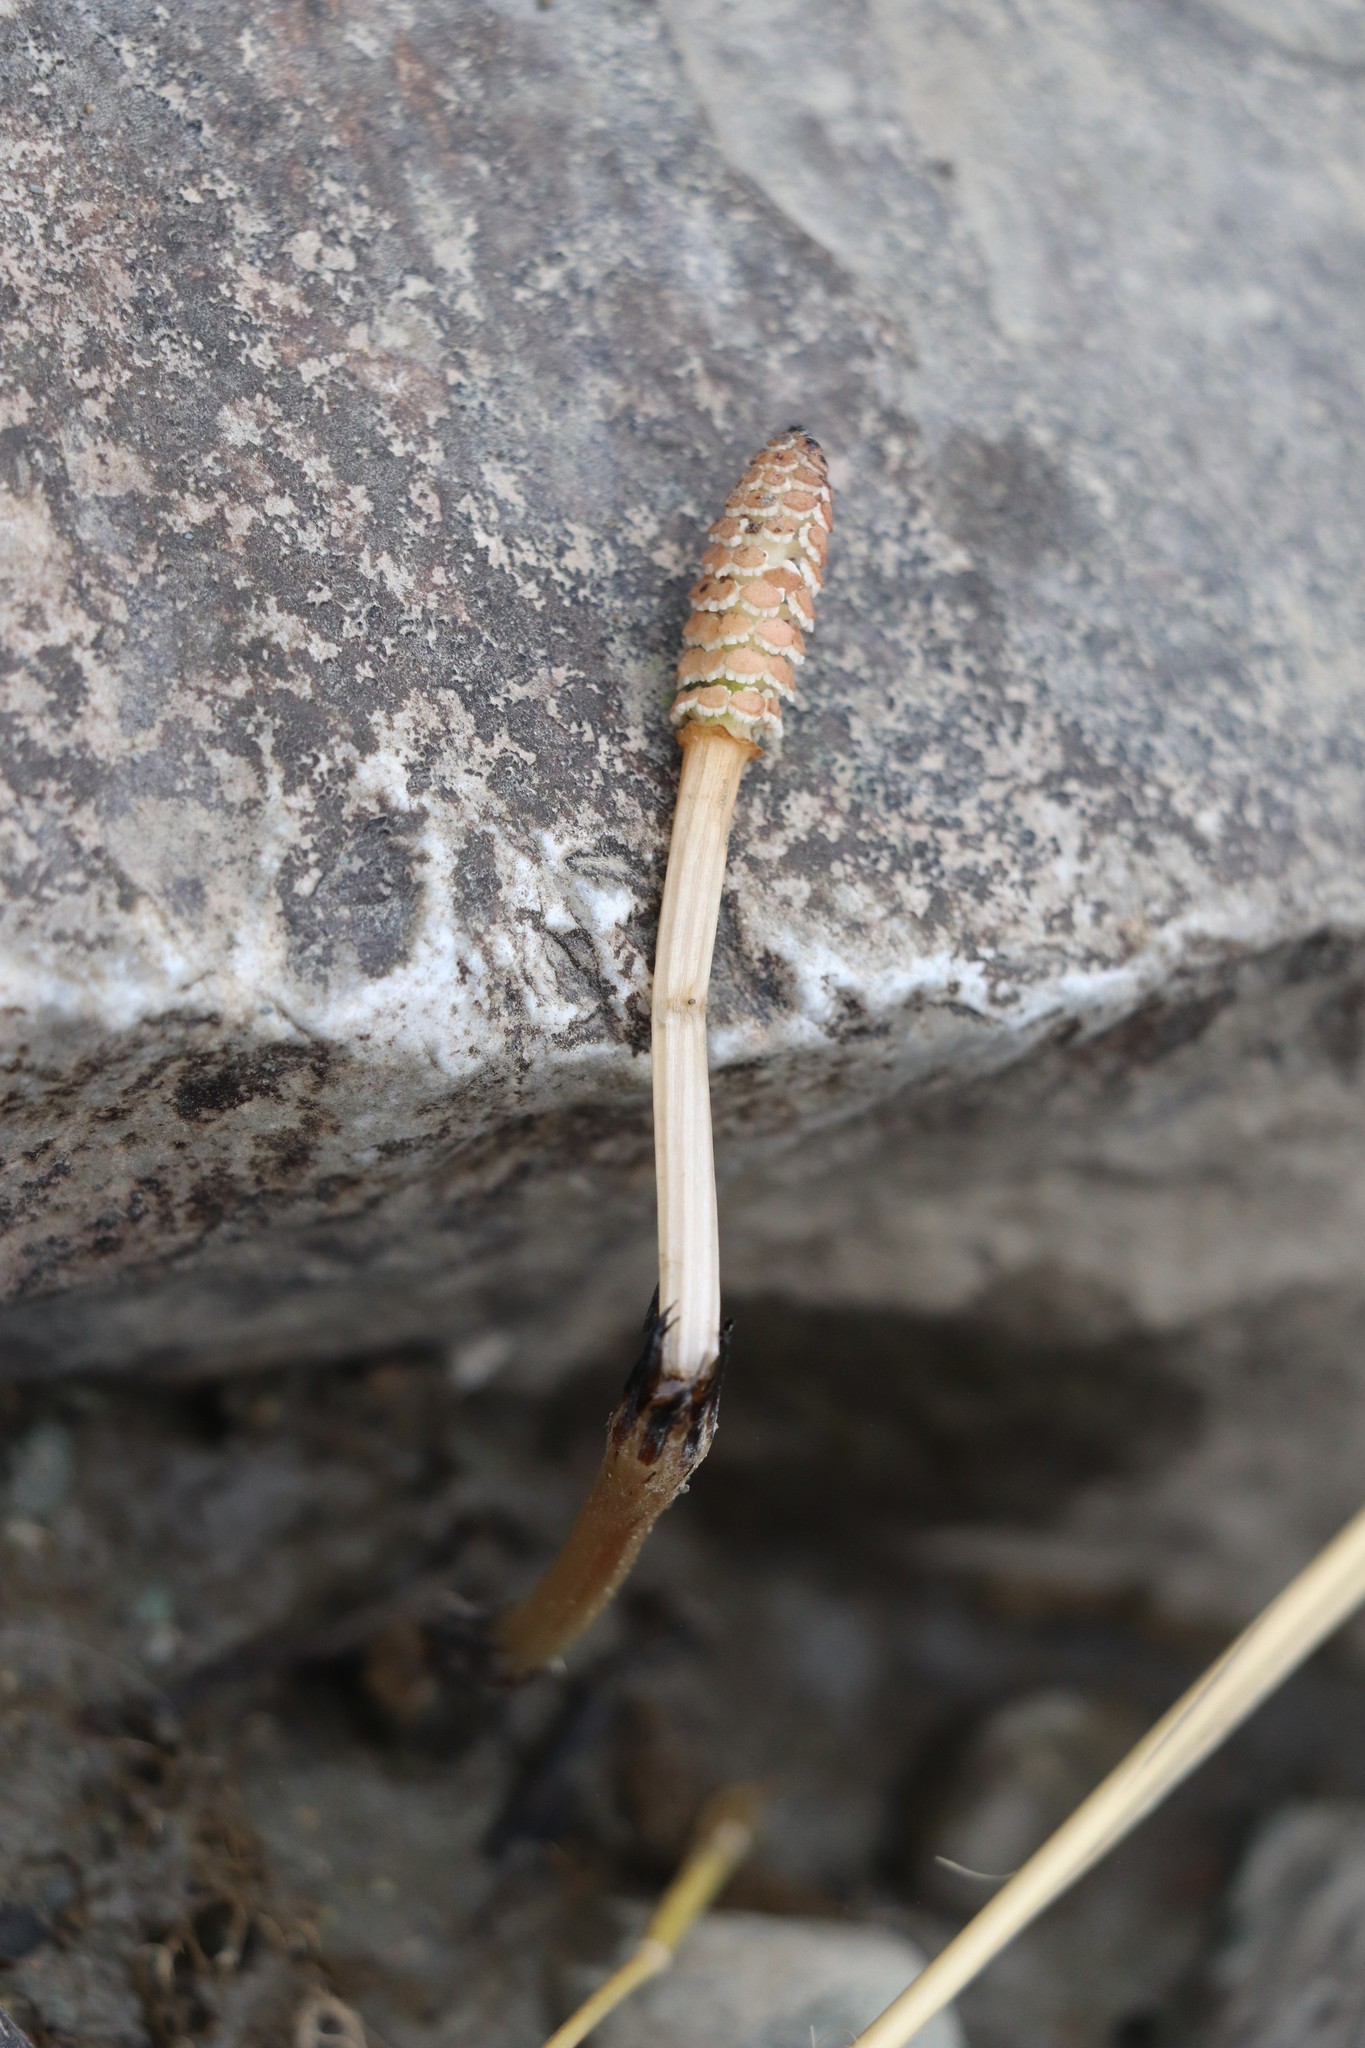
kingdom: Plantae
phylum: Tracheophyta
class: Polypodiopsida
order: Equisetales
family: Equisetaceae
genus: Equisetum
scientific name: Equisetum arvense
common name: Field horsetail
